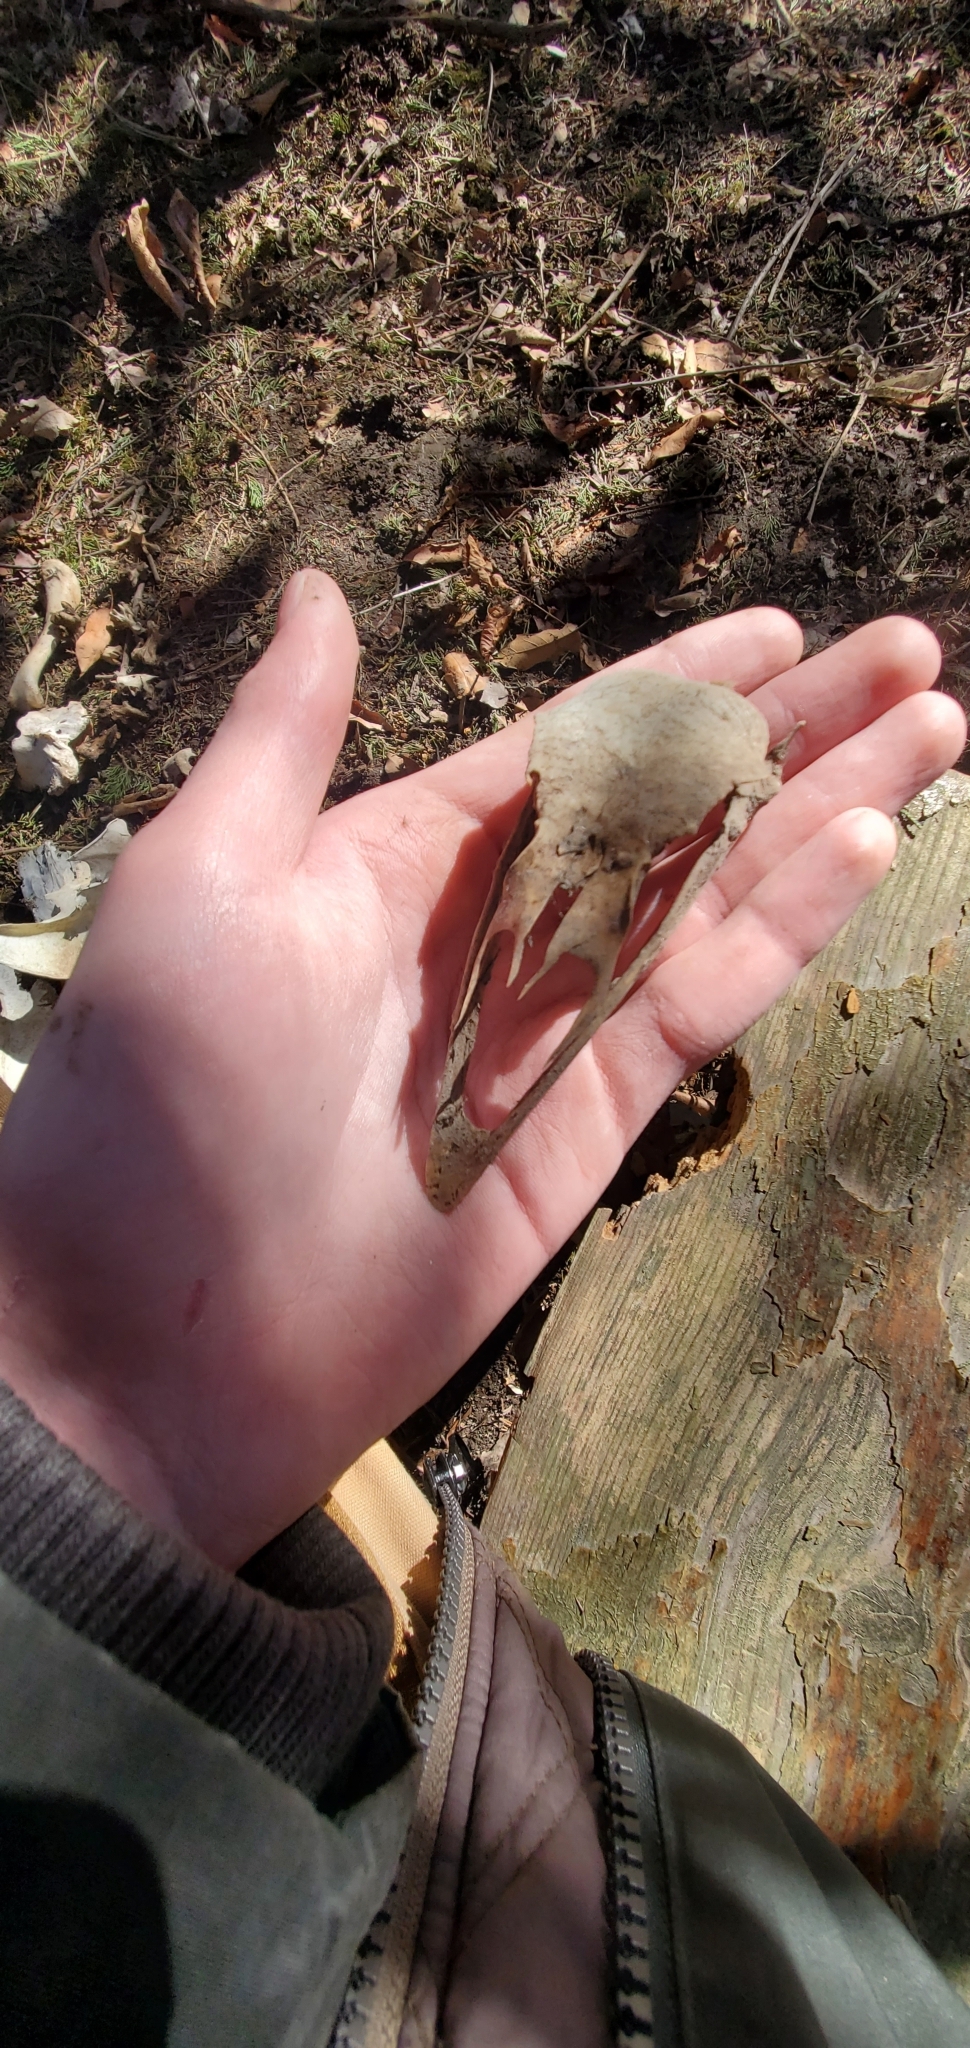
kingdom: Animalia
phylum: Chordata
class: Aves
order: Galliformes
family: Phasianidae
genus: Meleagris
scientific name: Meleagris gallopavo
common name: Wild turkey
